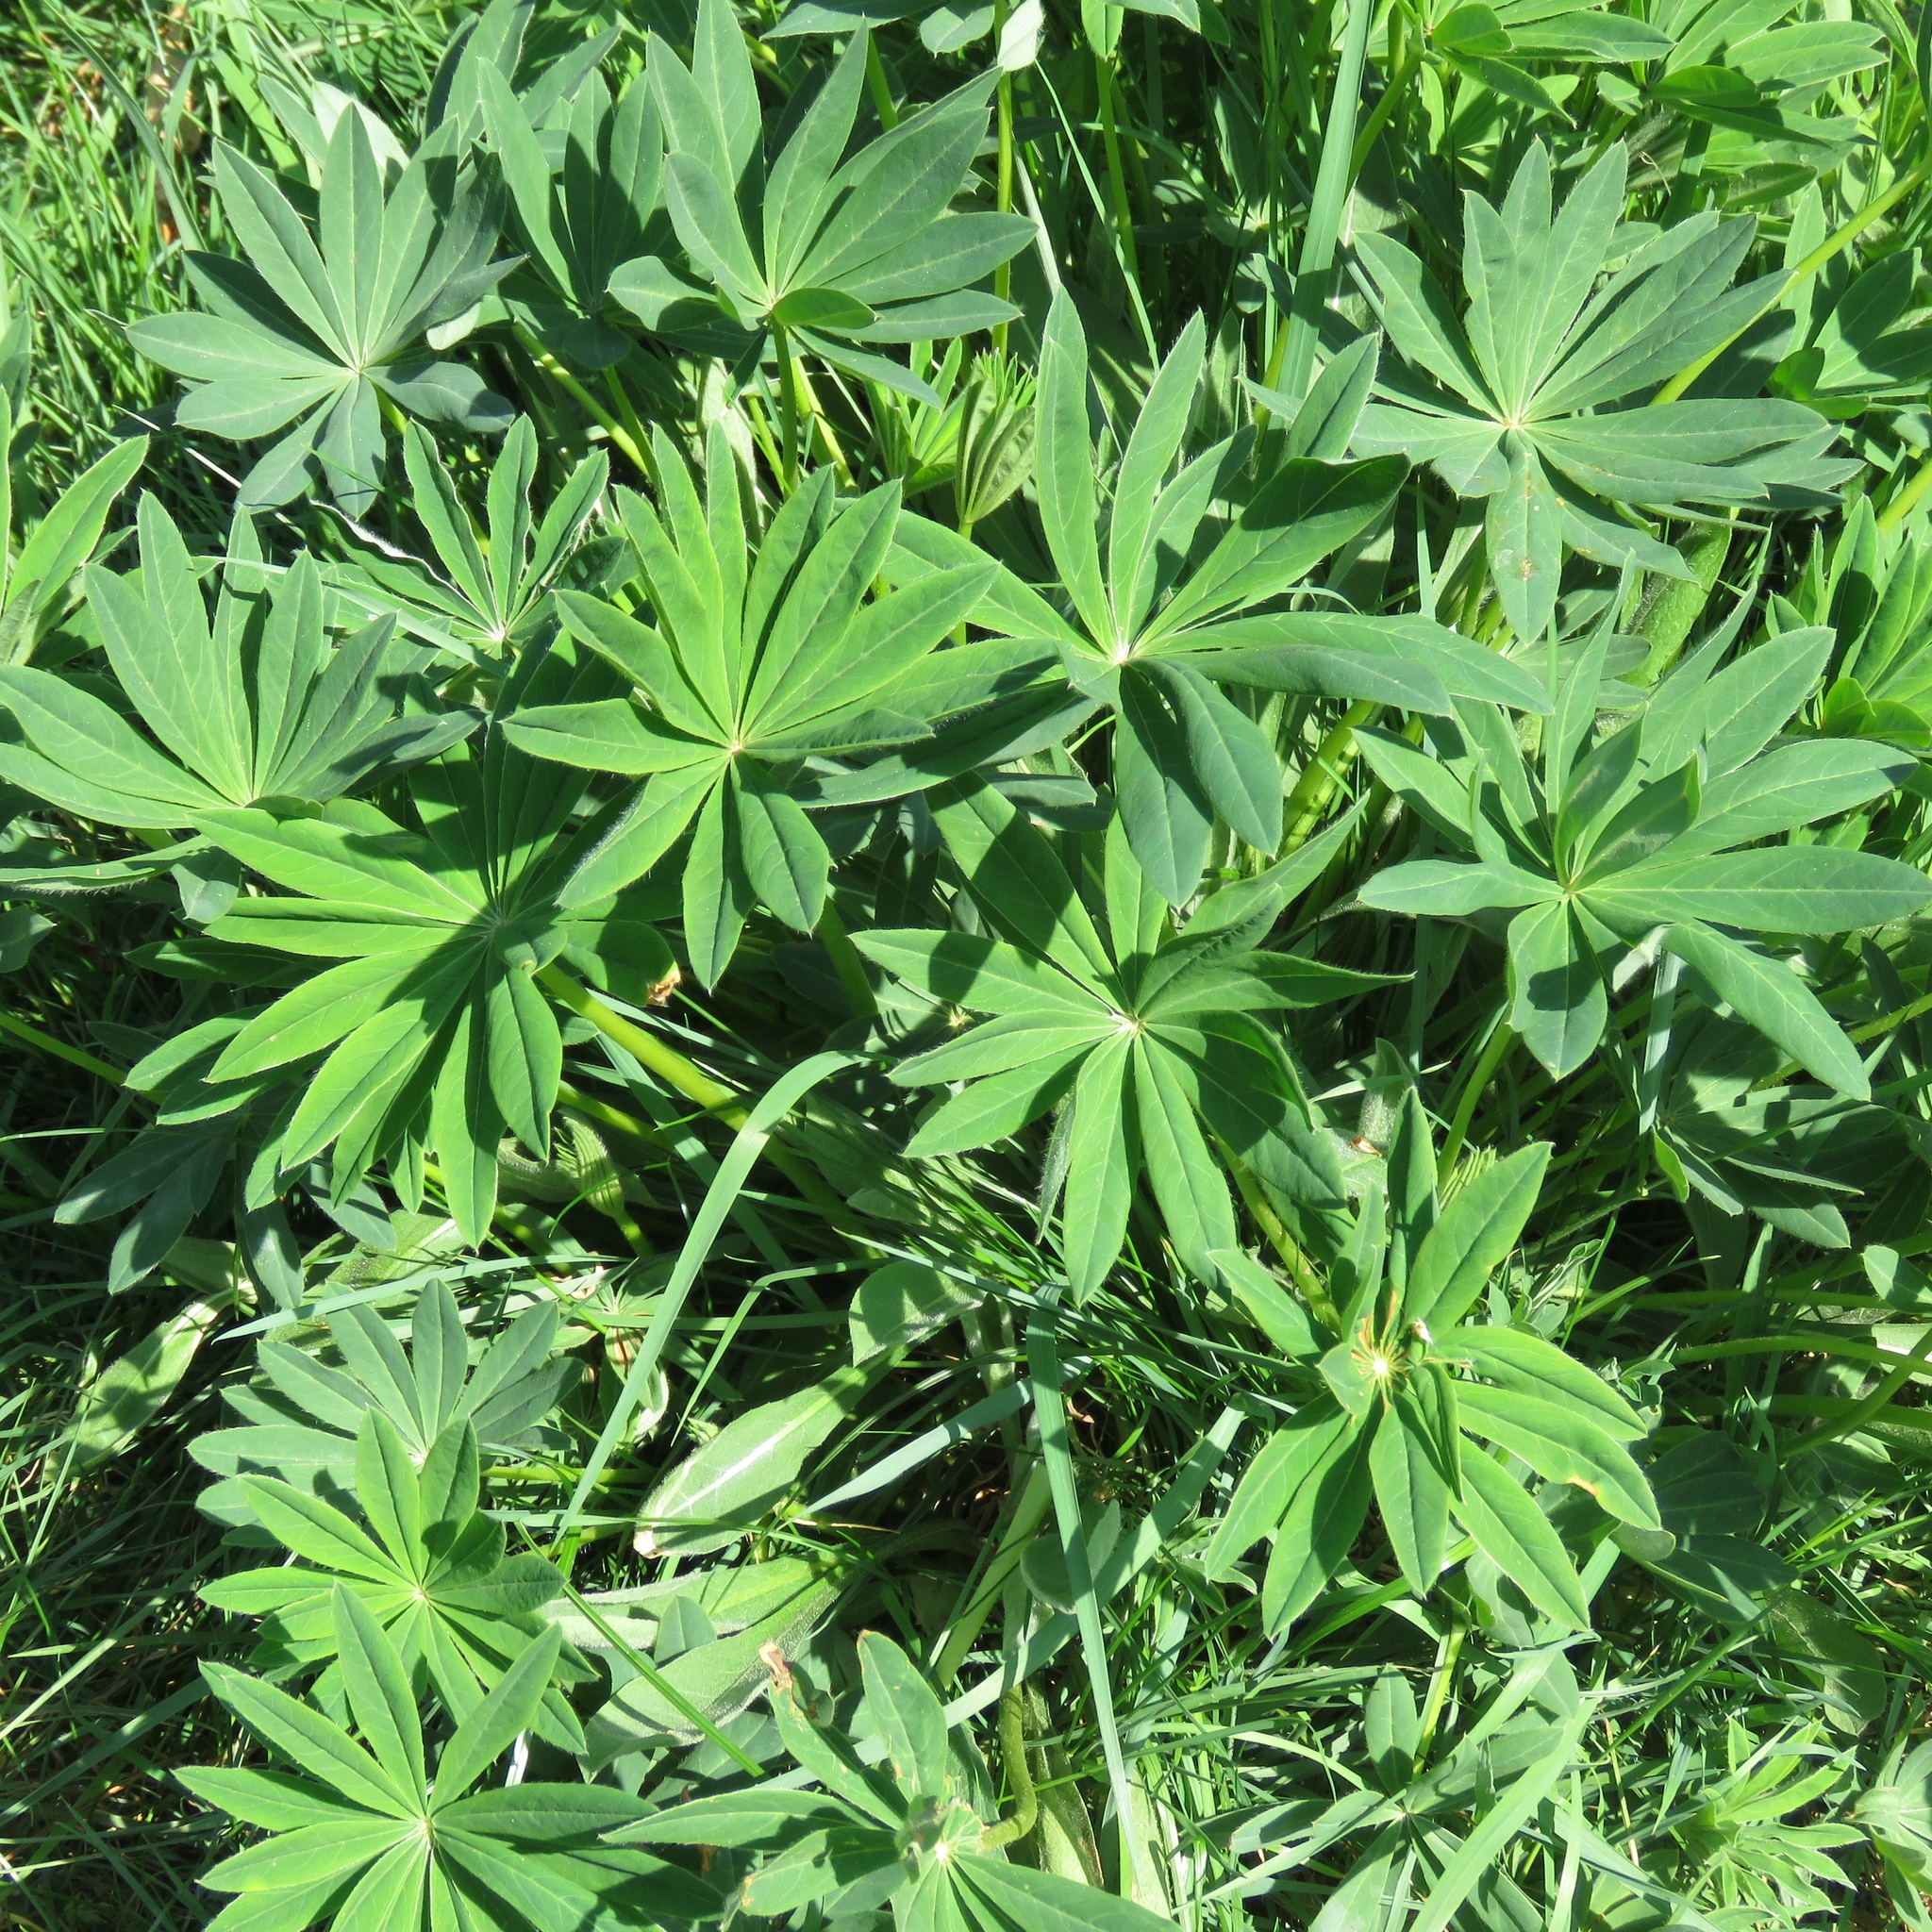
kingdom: Plantae
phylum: Tracheophyta
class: Magnoliopsida
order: Fabales
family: Fabaceae
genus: Lupinus
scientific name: Lupinus regalis
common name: Russell lupin
